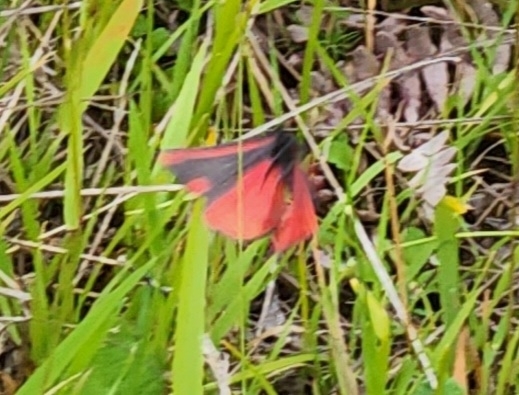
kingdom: Animalia
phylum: Arthropoda
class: Insecta
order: Lepidoptera
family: Erebidae
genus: Tyria
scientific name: Tyria jacobaeae
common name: Cinnabar
